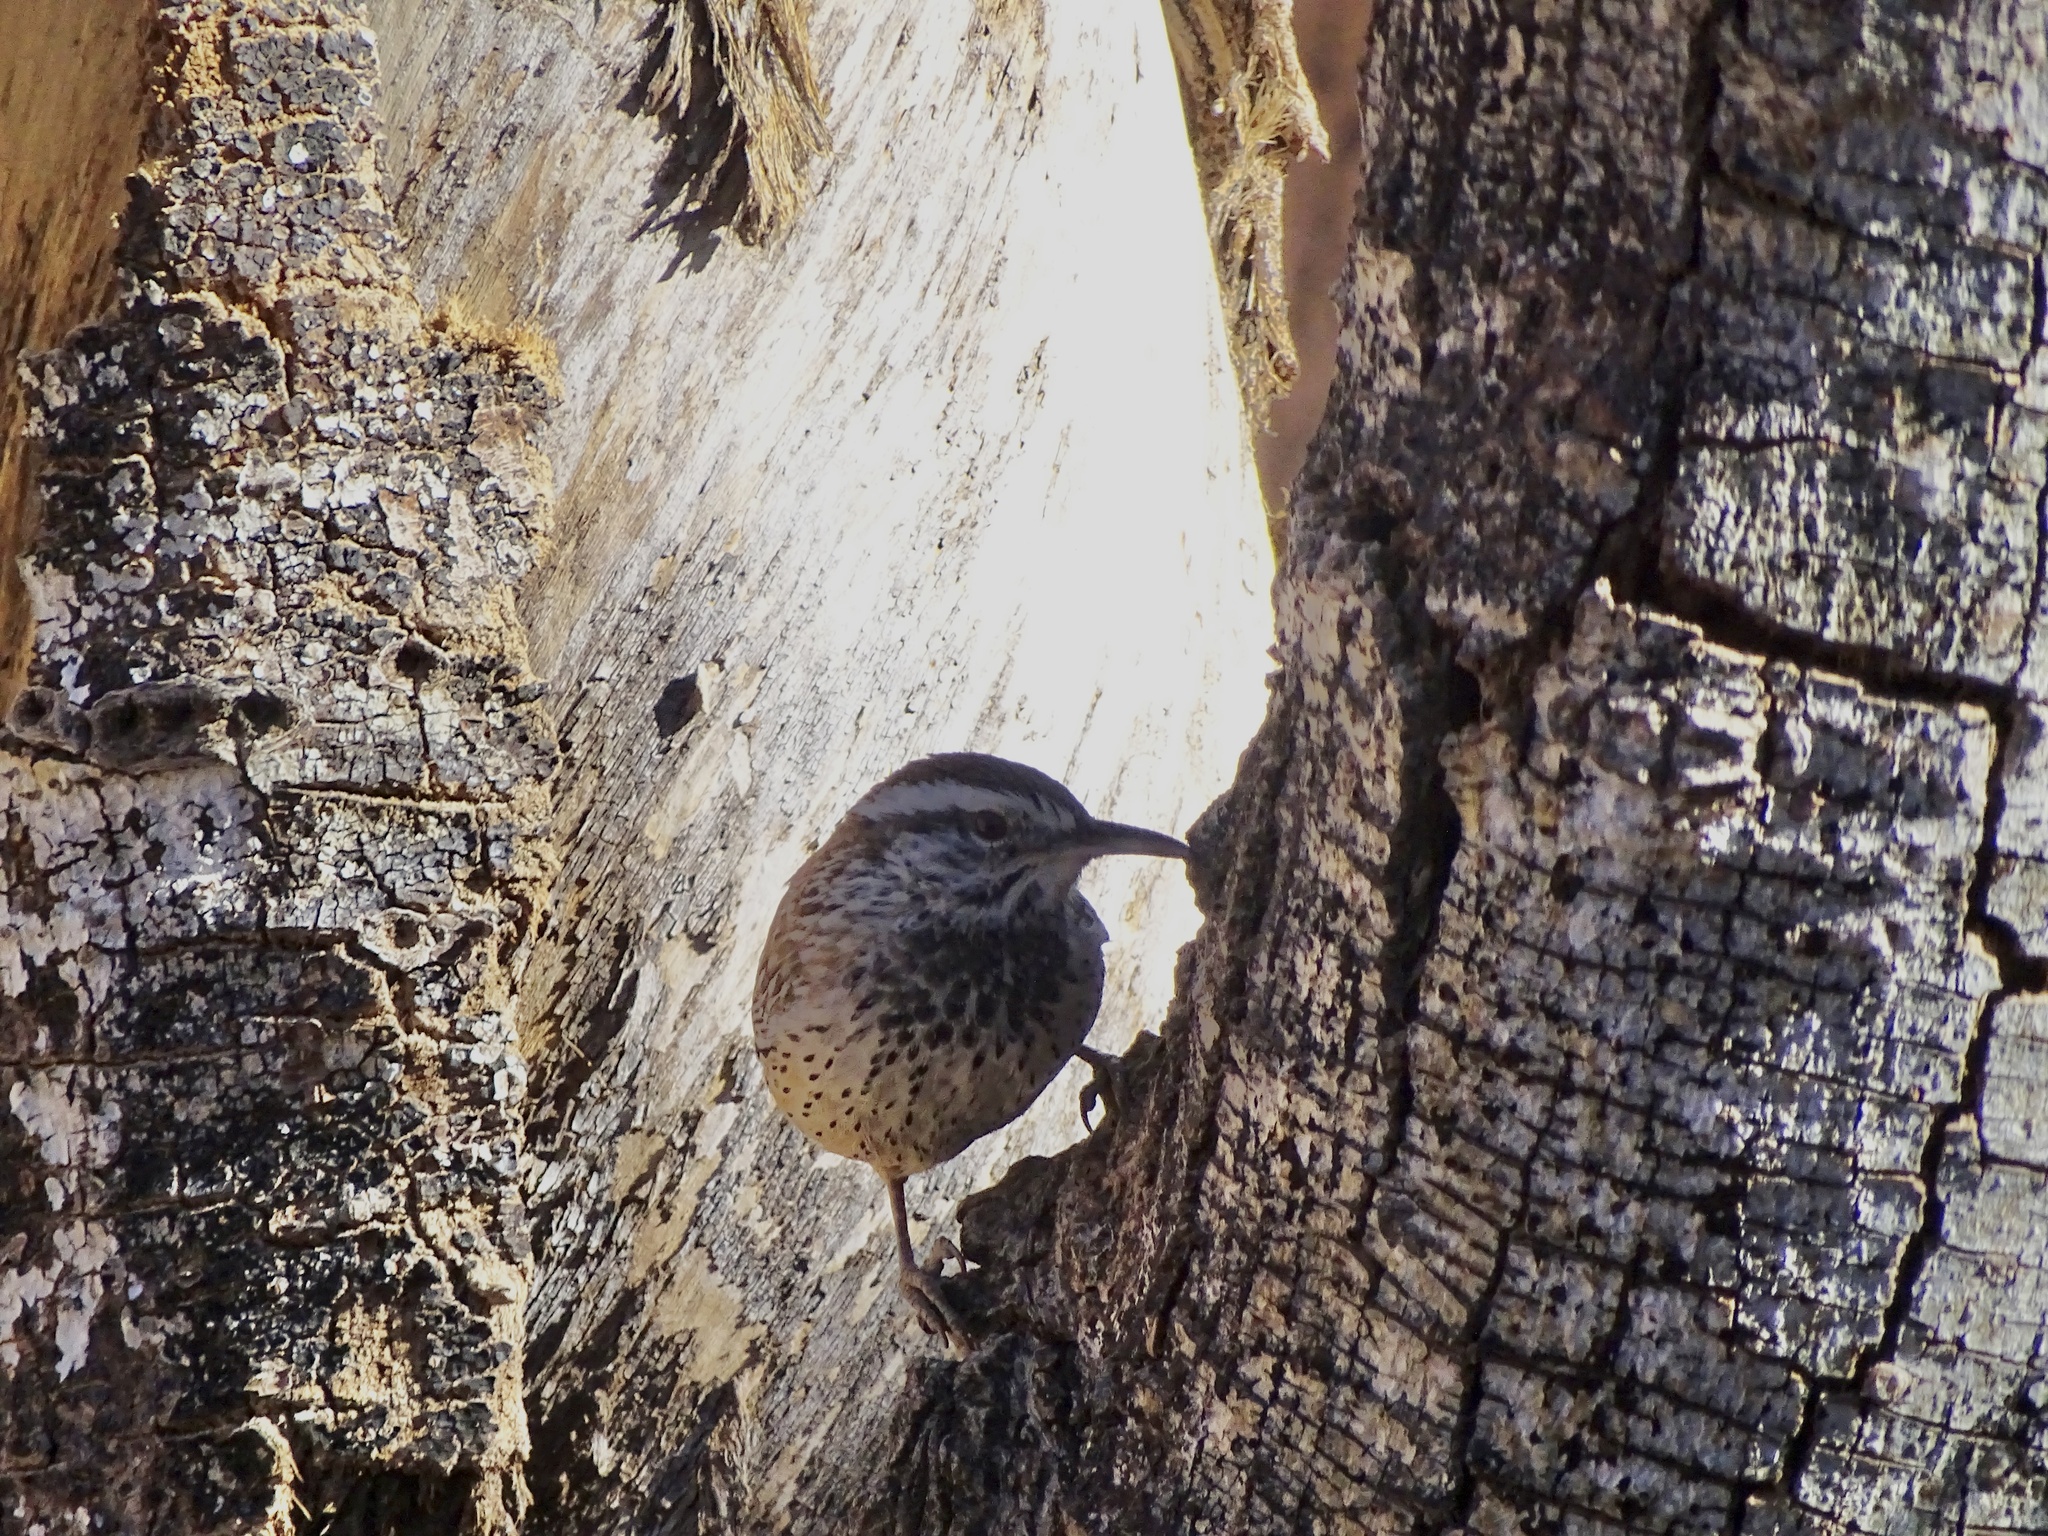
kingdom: Animalia
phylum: Chordata
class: Aves
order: Passeriformes
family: Troglodytidae
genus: Campylorhynchus
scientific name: Campylorhynchus brunneicapillus
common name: Cactus wren
